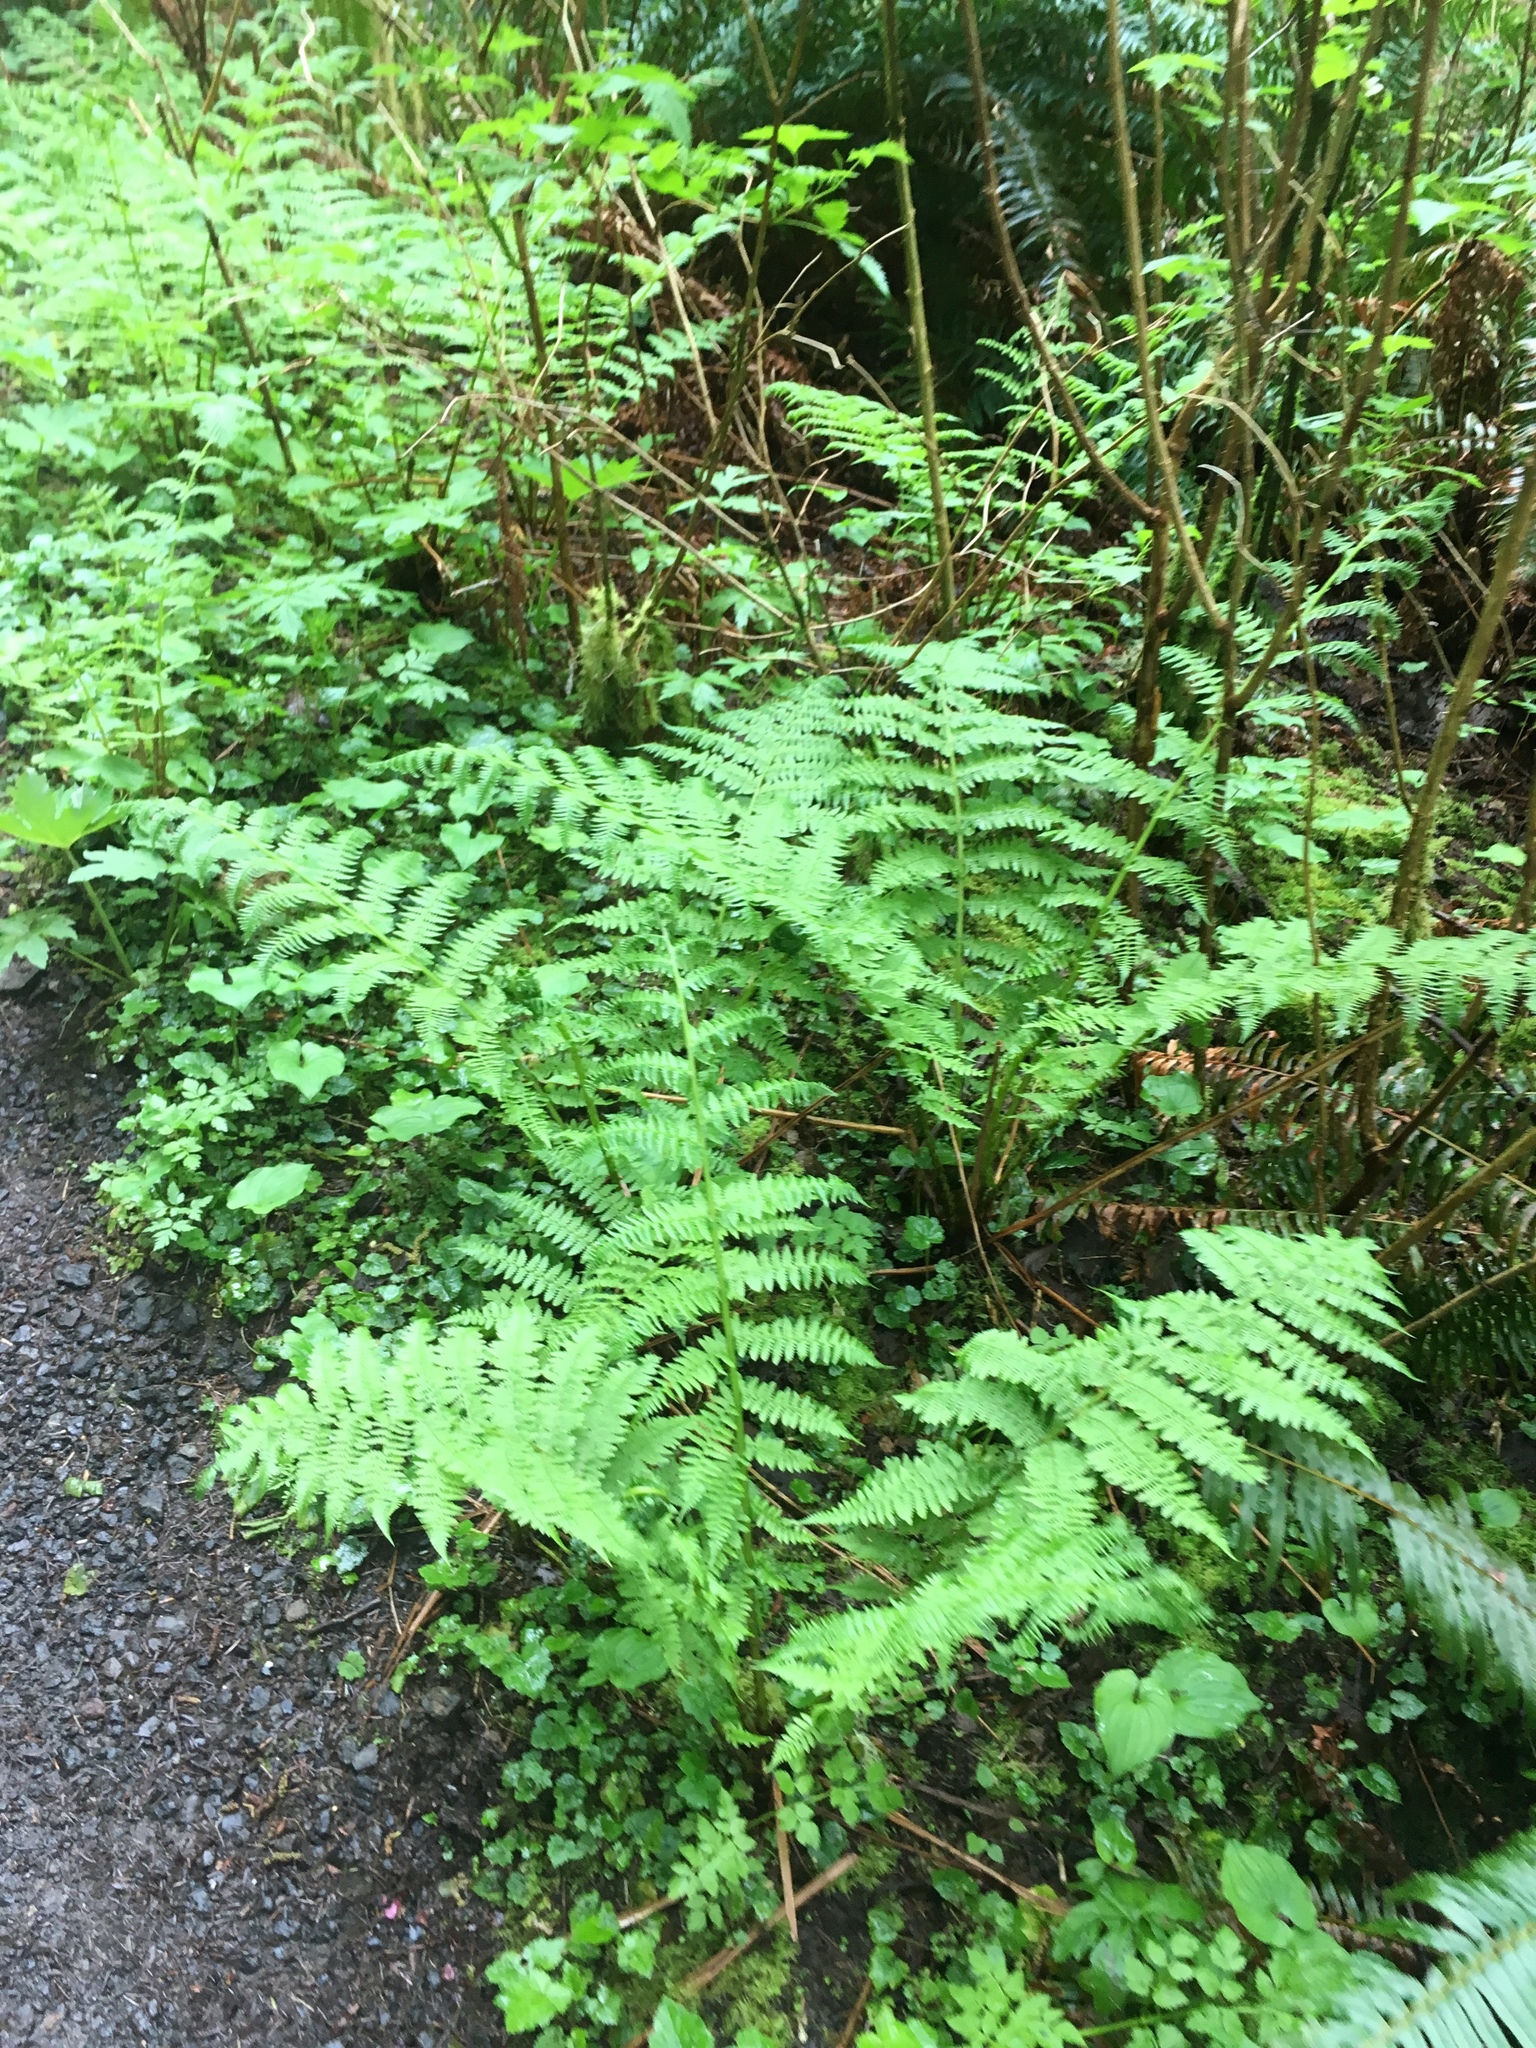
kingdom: Plantae
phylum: Tracheophyta
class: Polypodiopsida
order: Polypodiales
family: Athyriaceae
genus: Athyrium
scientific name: Athyrium filix-femina
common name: Lady fern
